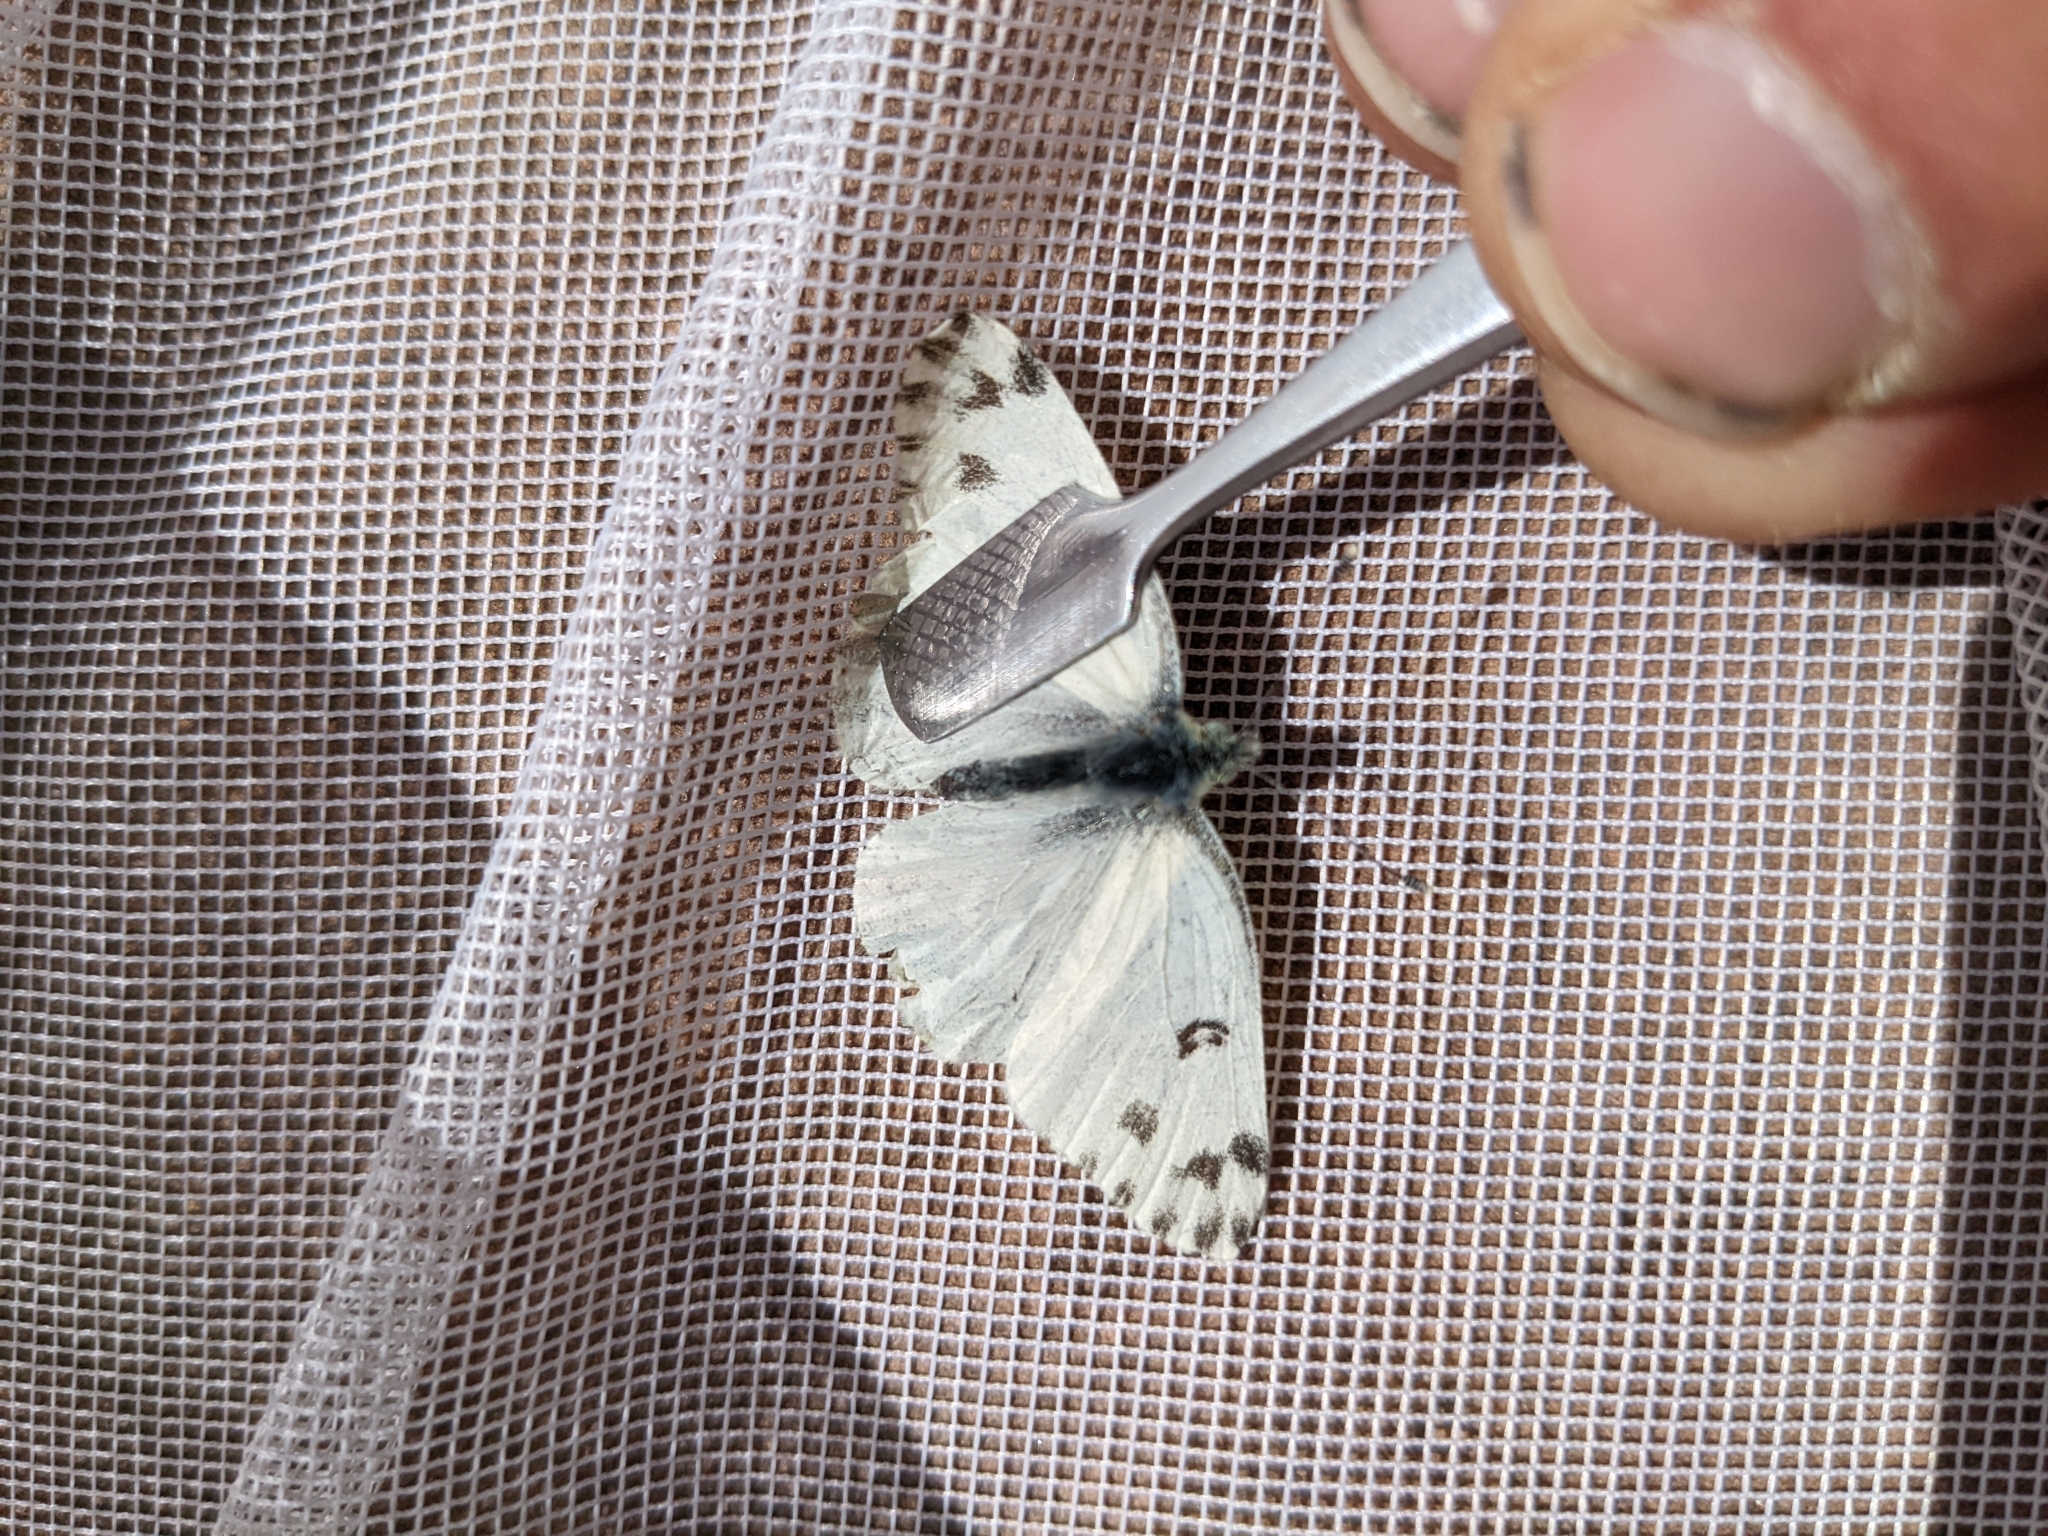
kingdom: Animalia
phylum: Arthropoda
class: Insecta
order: Lepidoptera
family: Pieridae
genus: Pontia
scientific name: Pontia beckerii
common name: Becker's white
